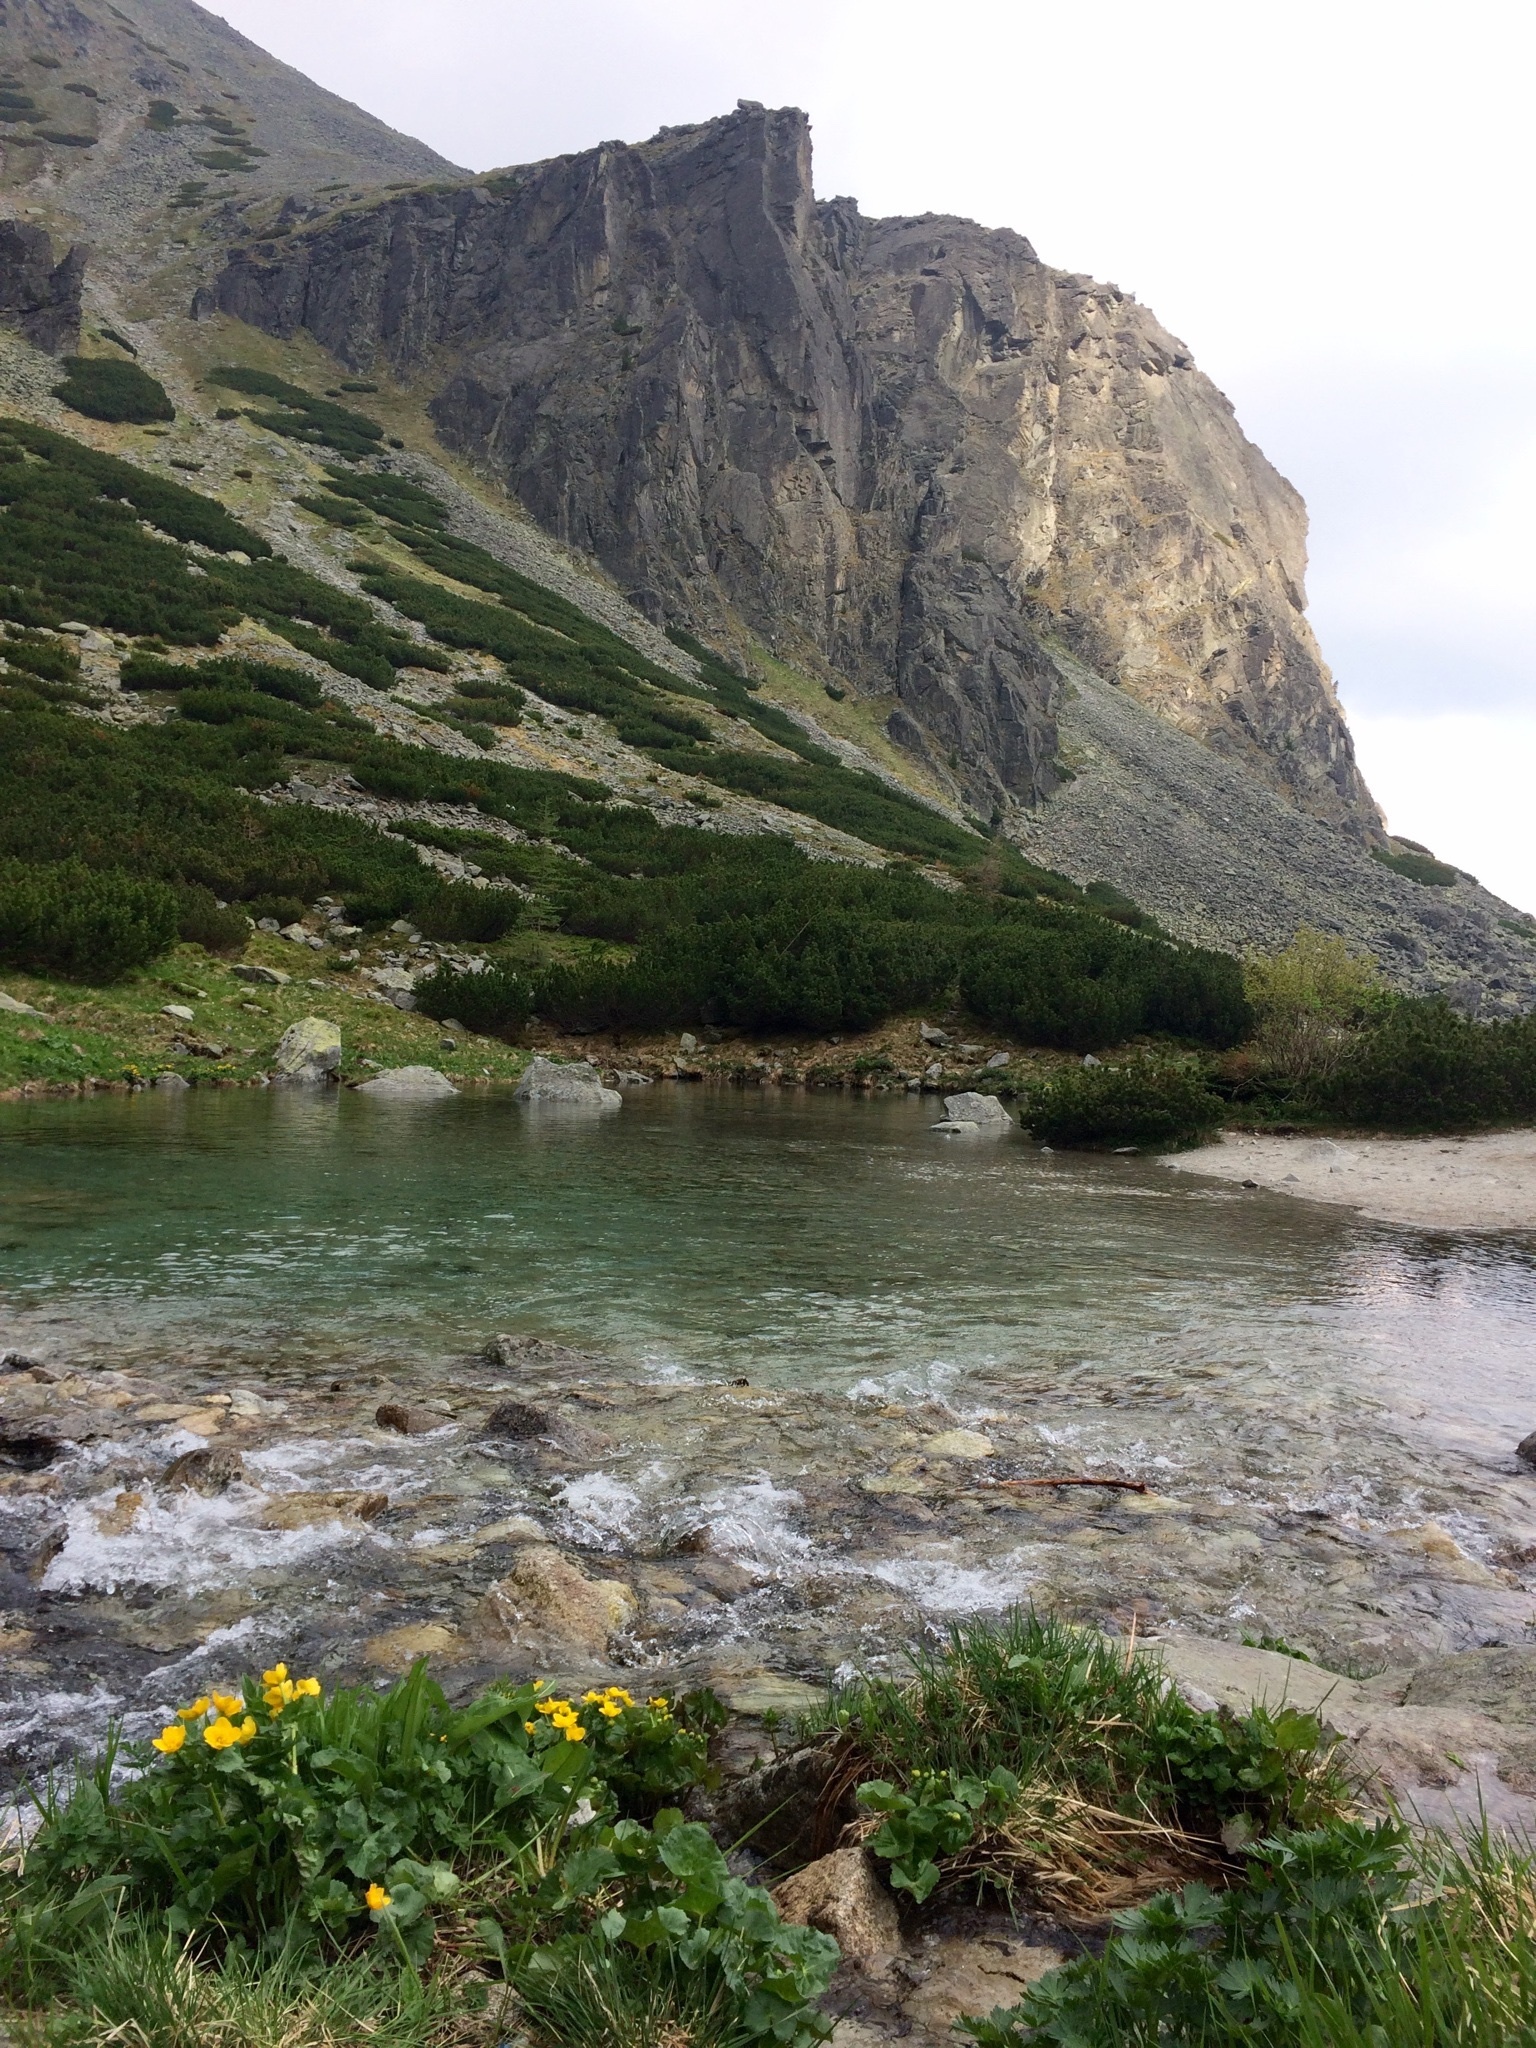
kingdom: Plantae
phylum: Tracheophyta
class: Magnoliopsida
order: Ranunculales
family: Ranunculaceae
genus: Caltha
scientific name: Caltha palustris
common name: Marsh marigold
